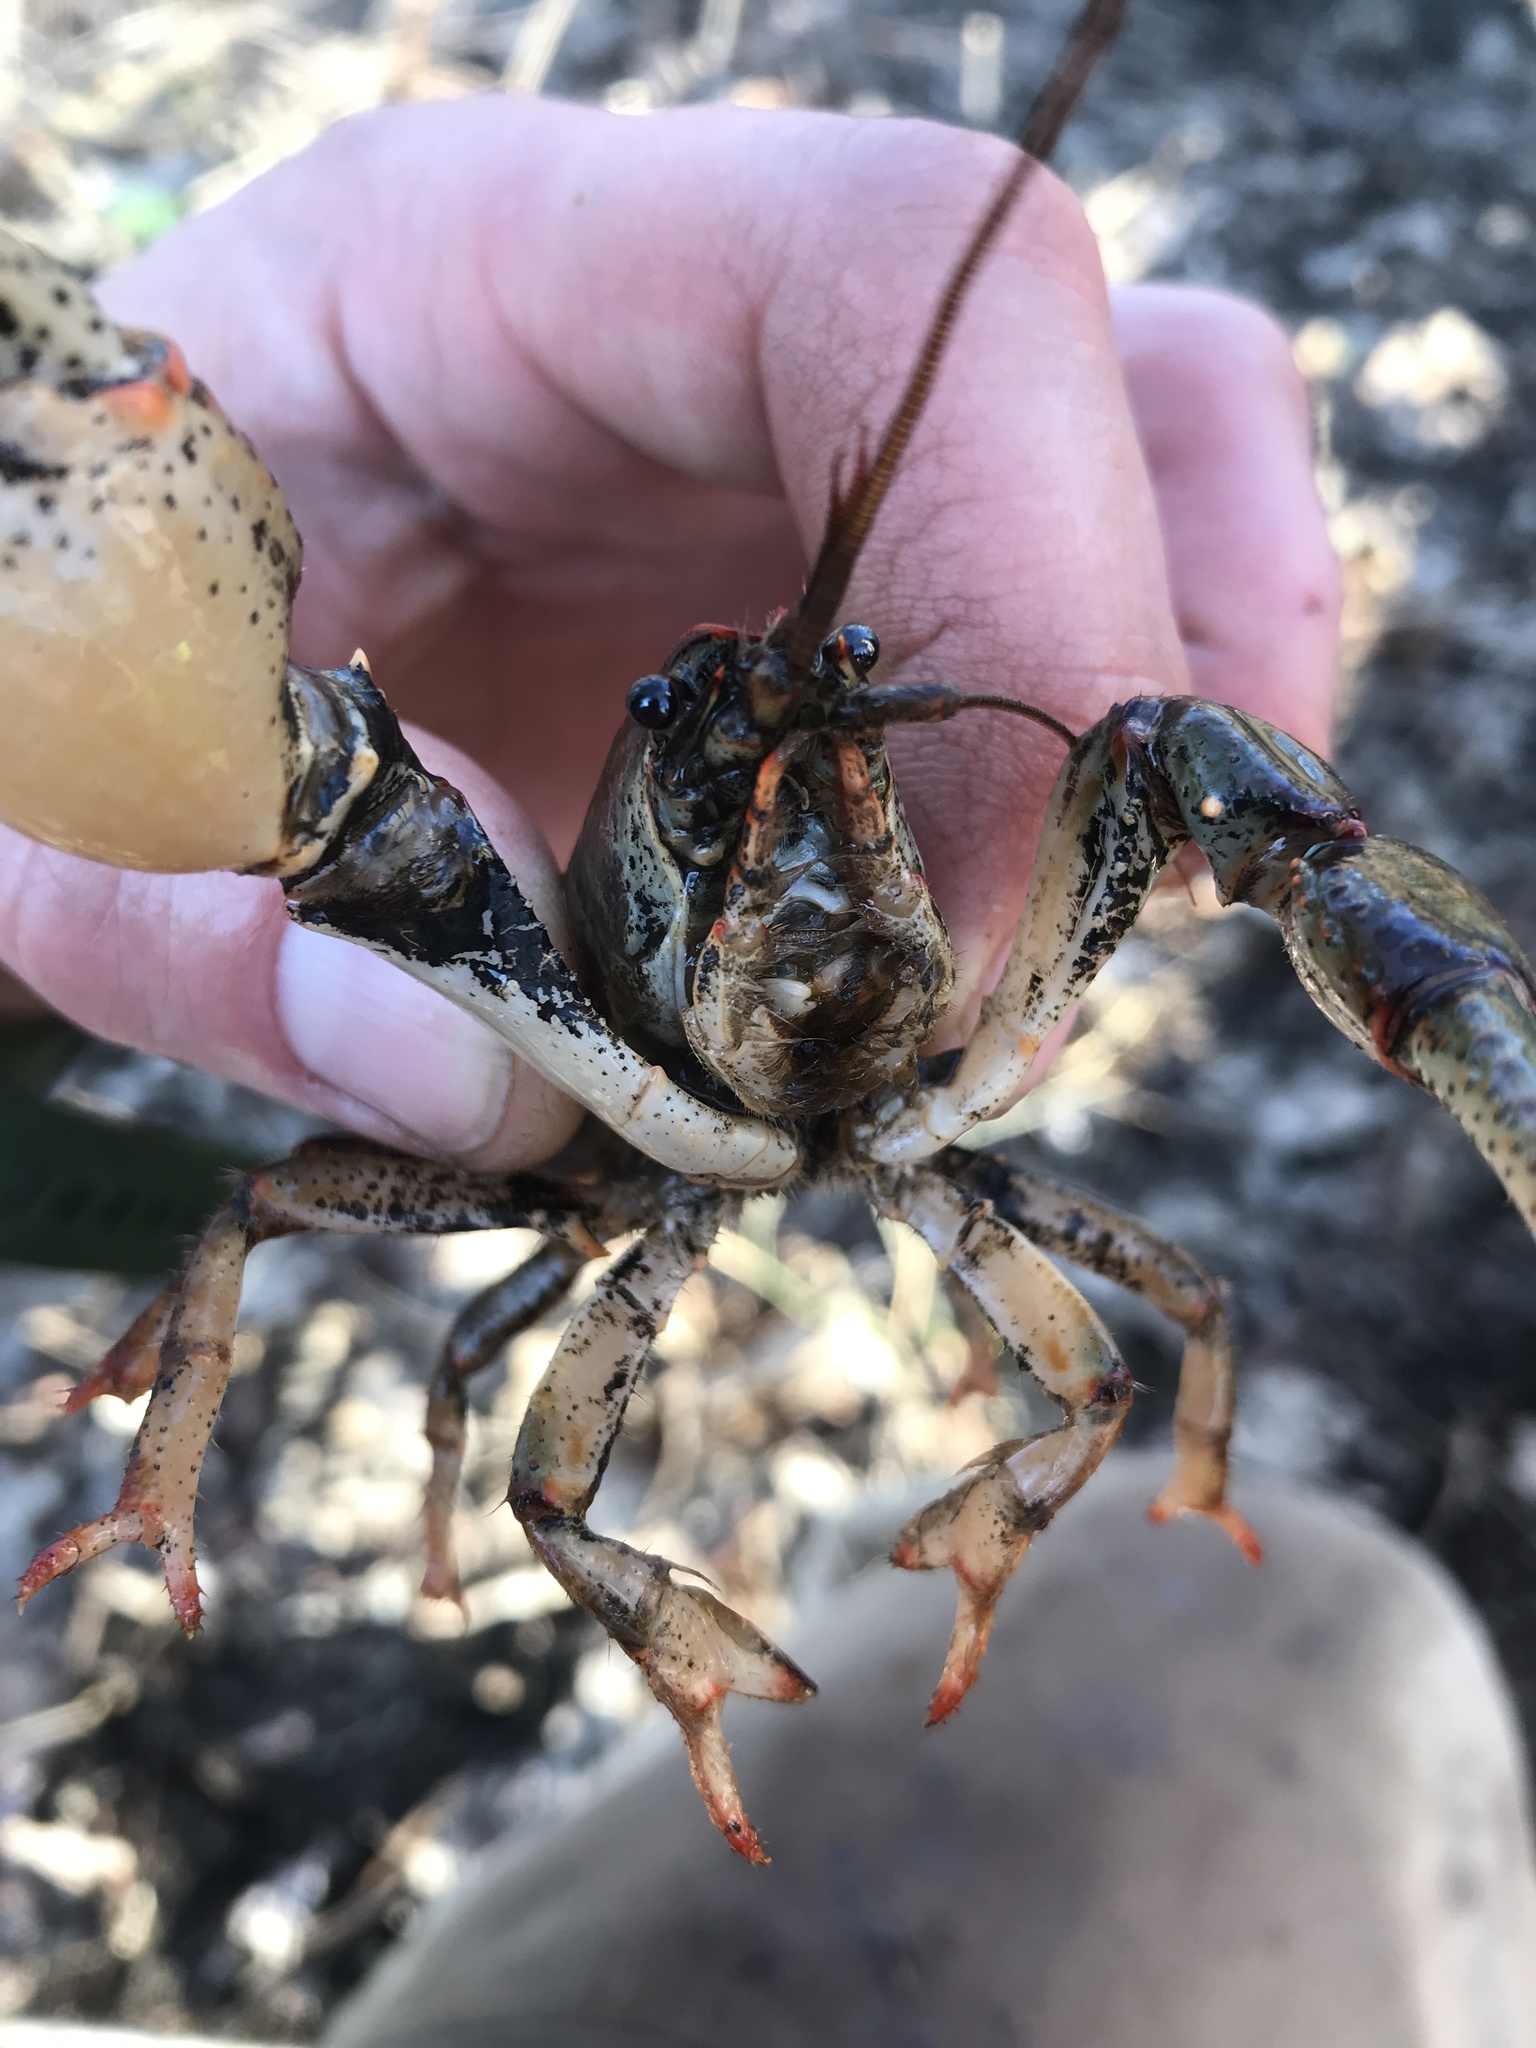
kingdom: Animalia
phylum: Arthropoda
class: Malacostraca
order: Decapoda
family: Cambaridae
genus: Lacunicambarus
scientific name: Lacunicambarus polychromatus
